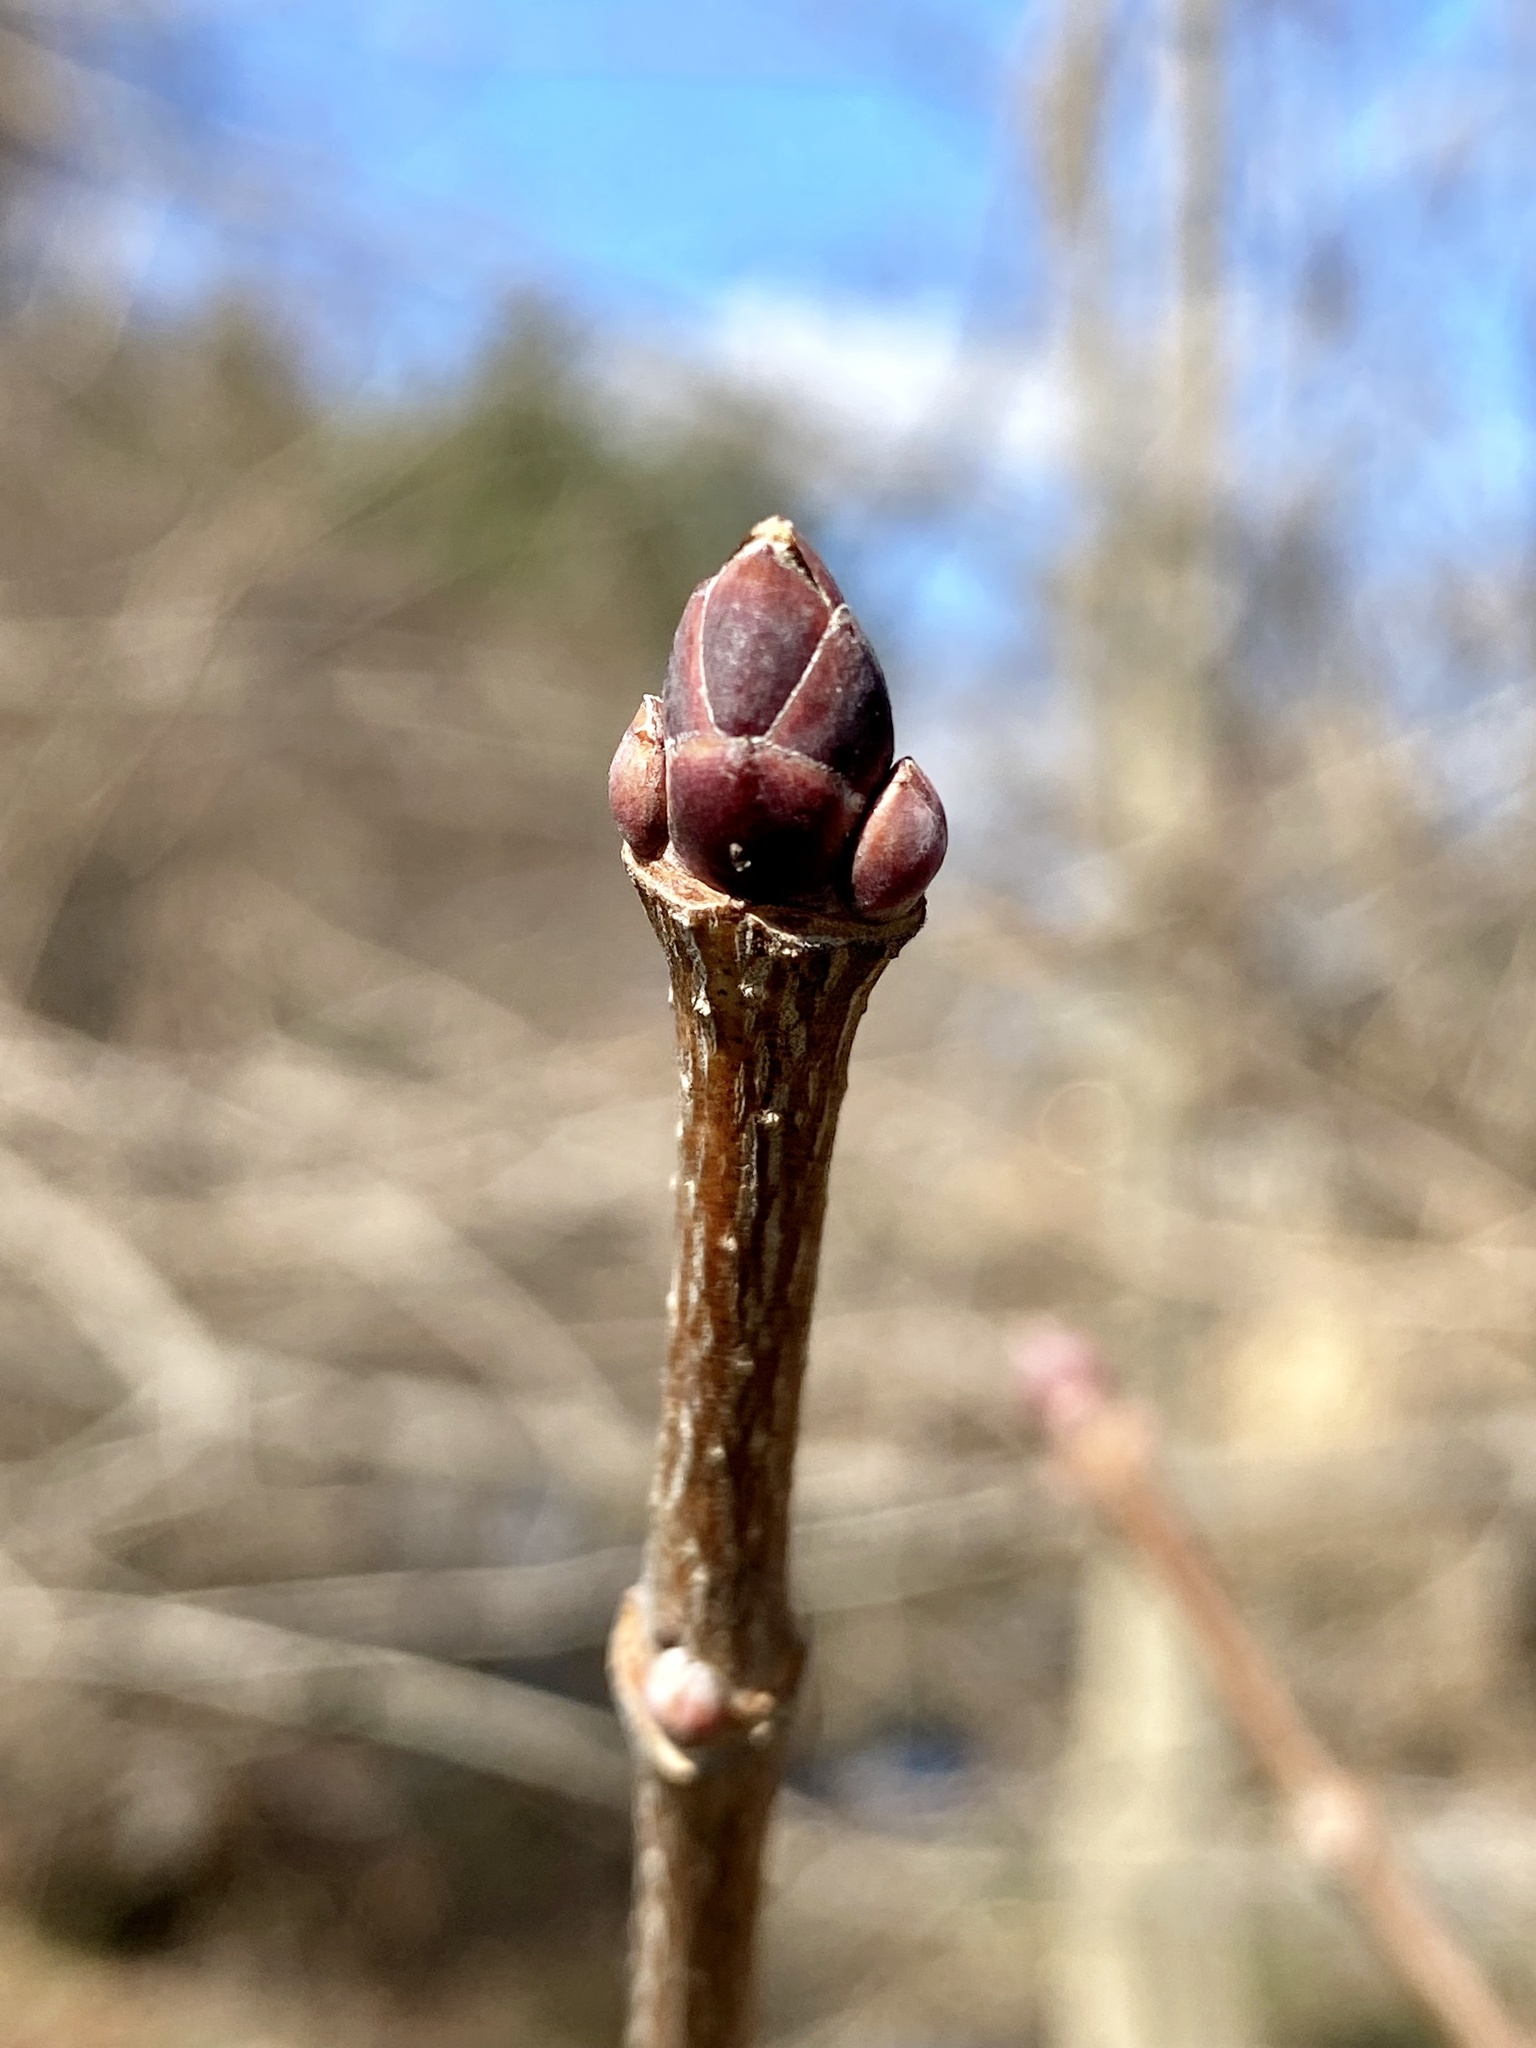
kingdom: Plantae
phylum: Tracheophyta
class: Magnoliopsida
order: Sapindales
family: Sapindaceae
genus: Acer
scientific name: Acer platanoides
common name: Norway maple
